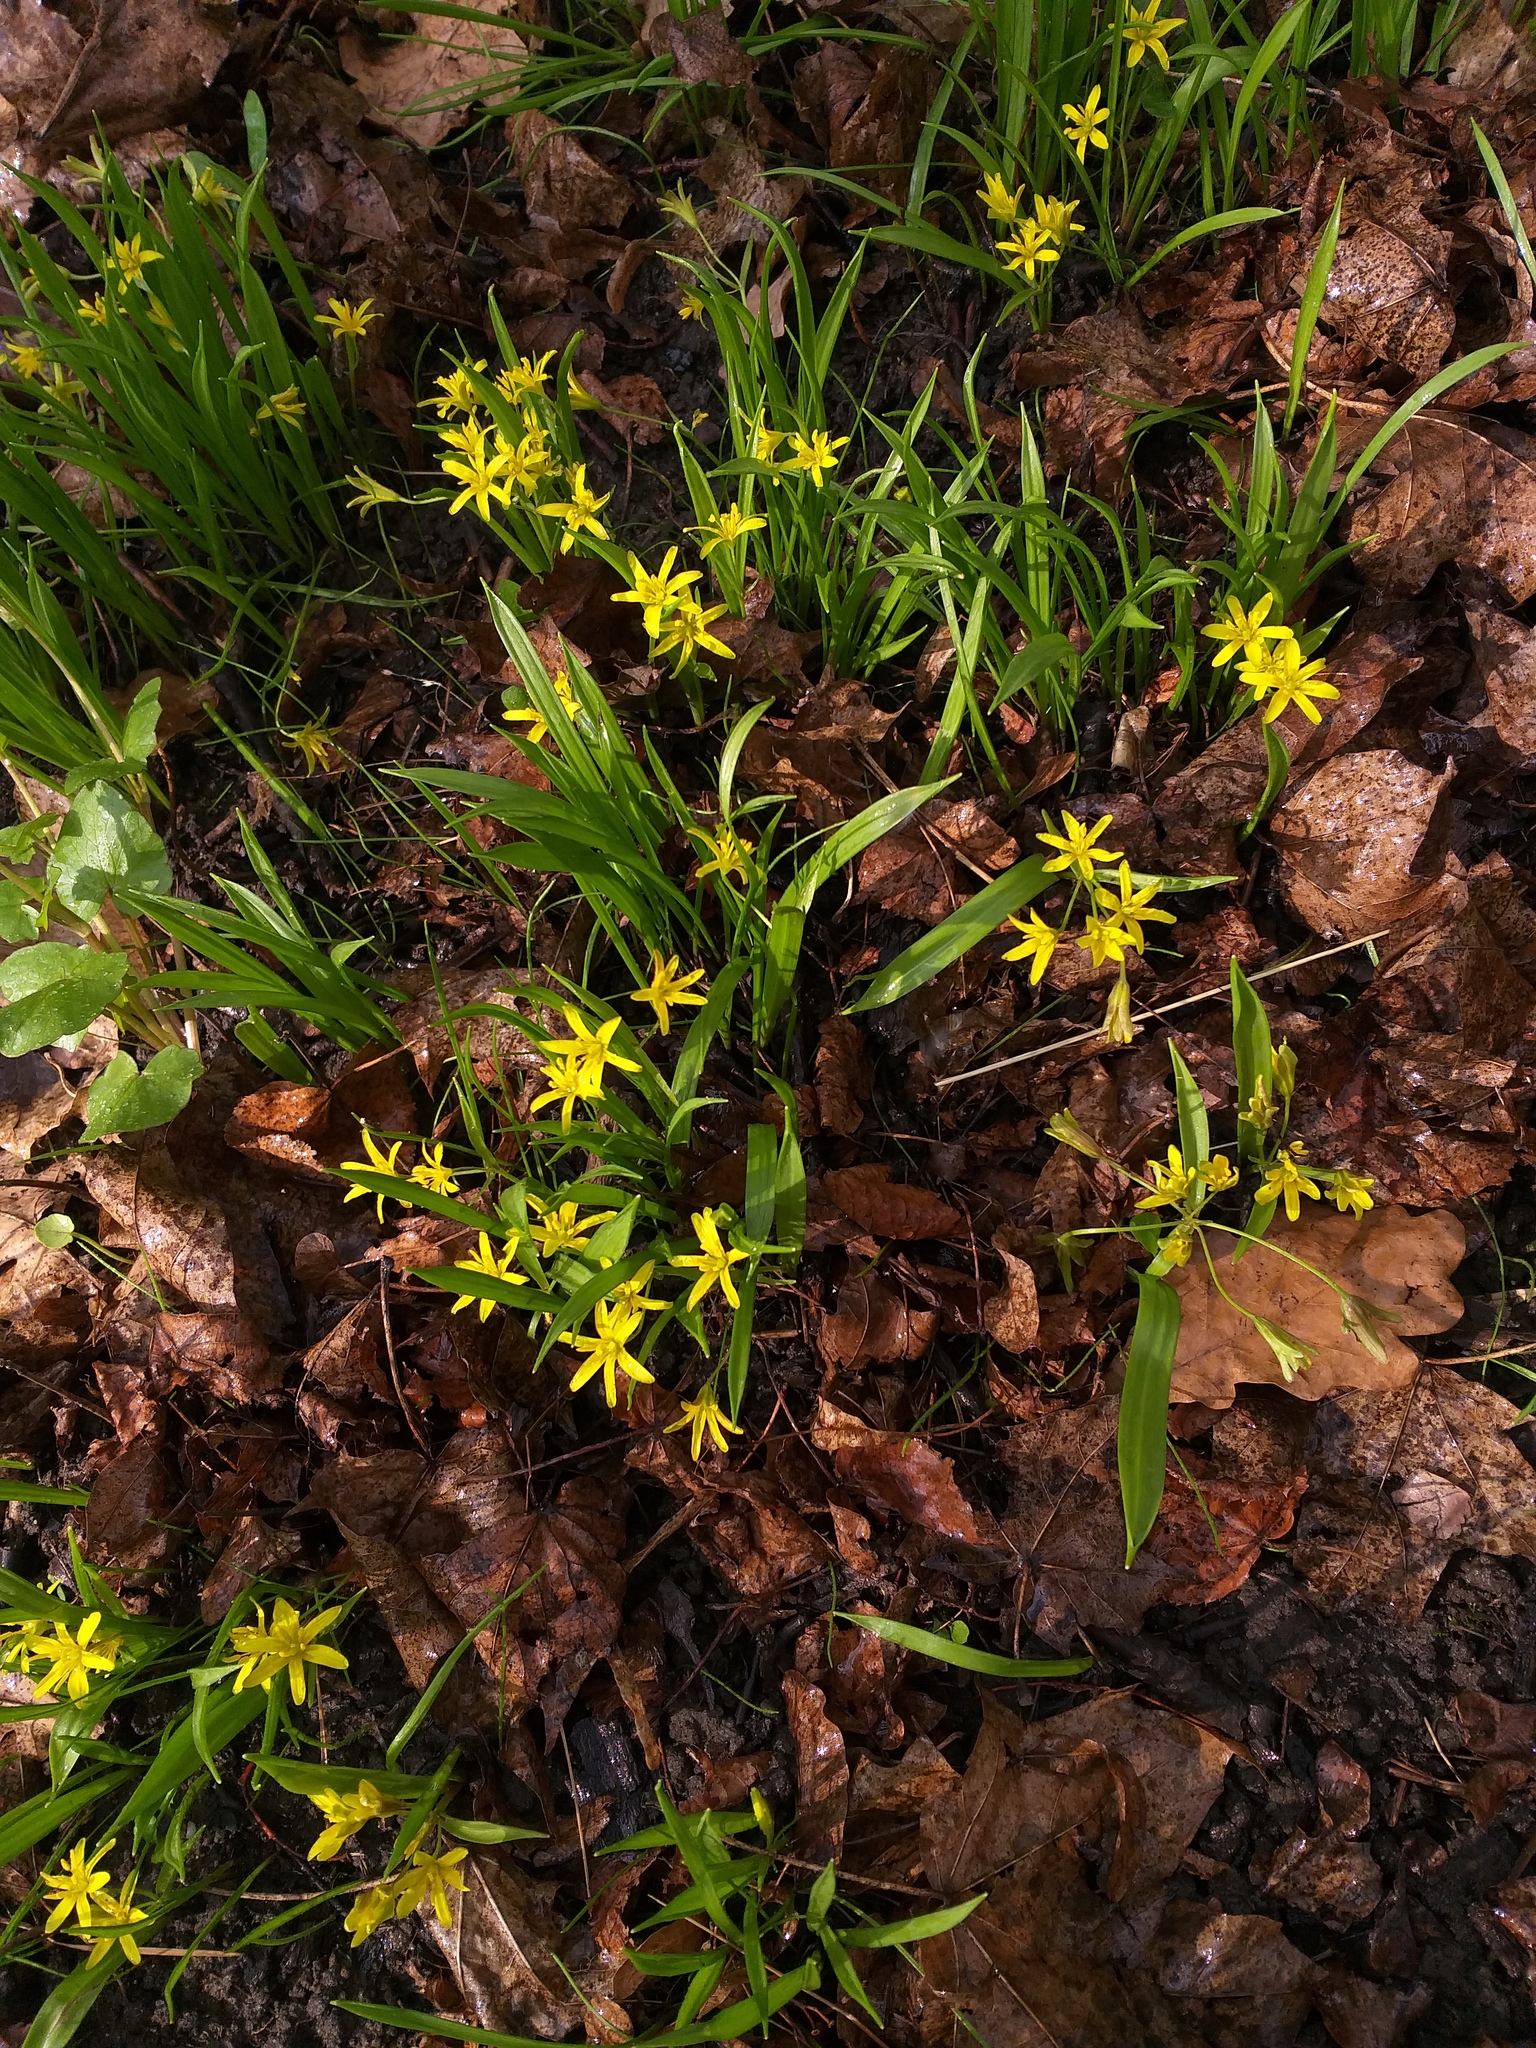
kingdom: Plantae
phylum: Tracheophyta
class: Liliopsida
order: Liliales
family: Liliaceae
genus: Gagea
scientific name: Gagea lutea
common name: Yellow star-of-bethlehem
